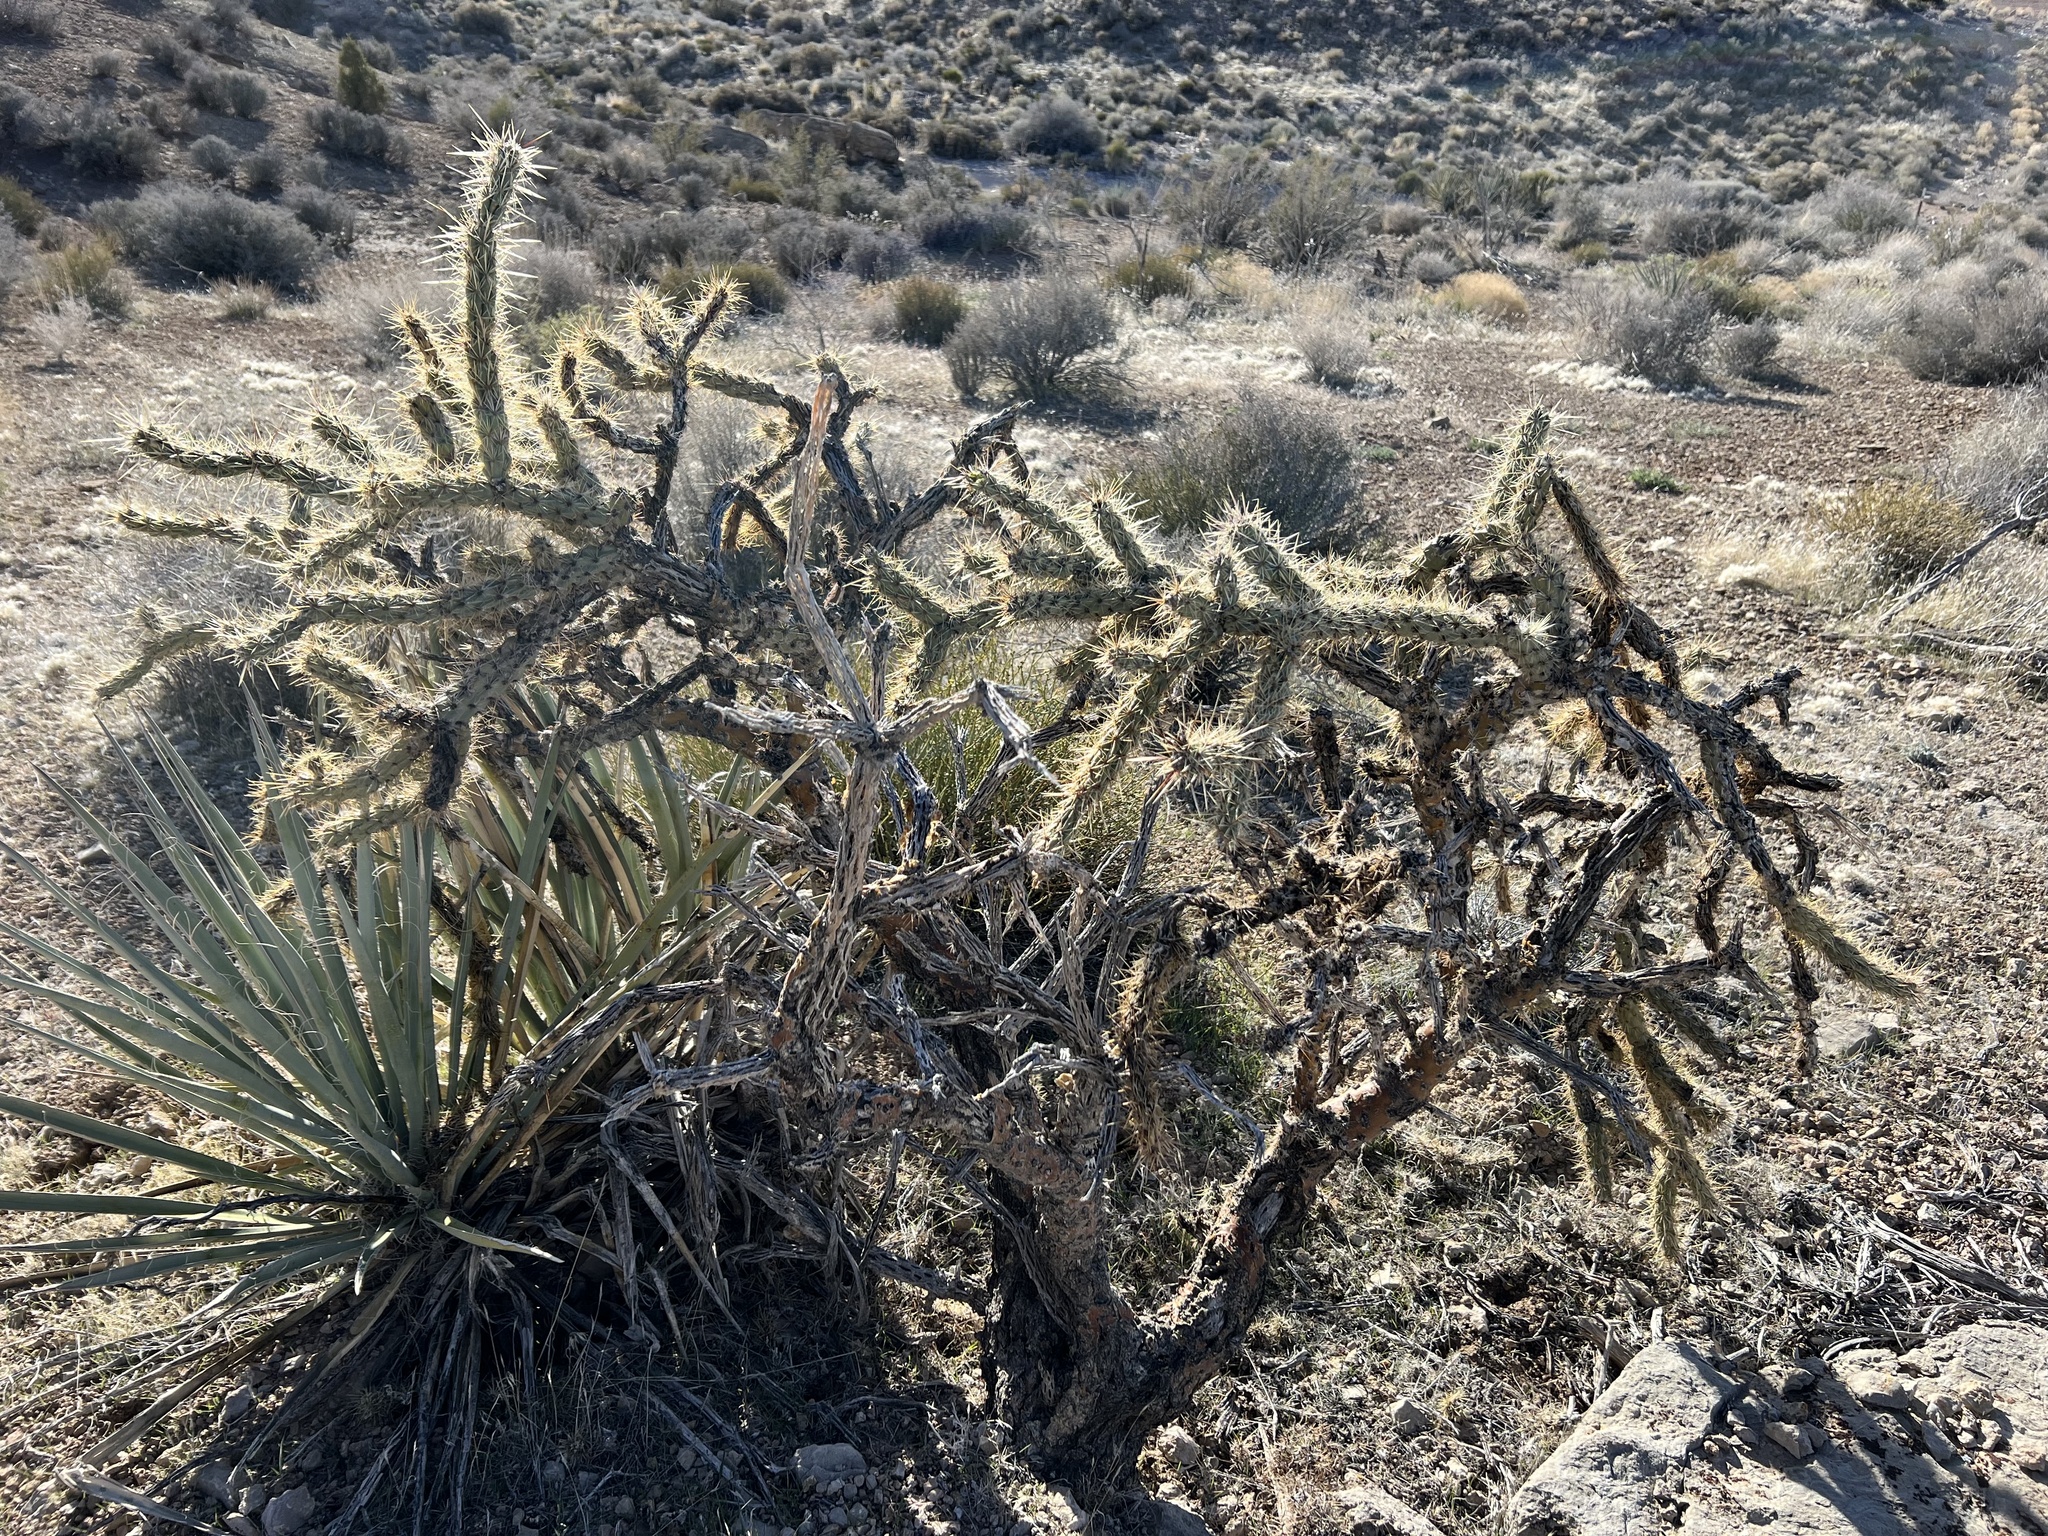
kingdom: Plantae
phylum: Tracheophyta
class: Magnoliopsida
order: Caryophyllales
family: Cactaceae
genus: Cylindropuntia
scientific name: Cylindropuntia acanthocarpa
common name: Buckhorn cholla
